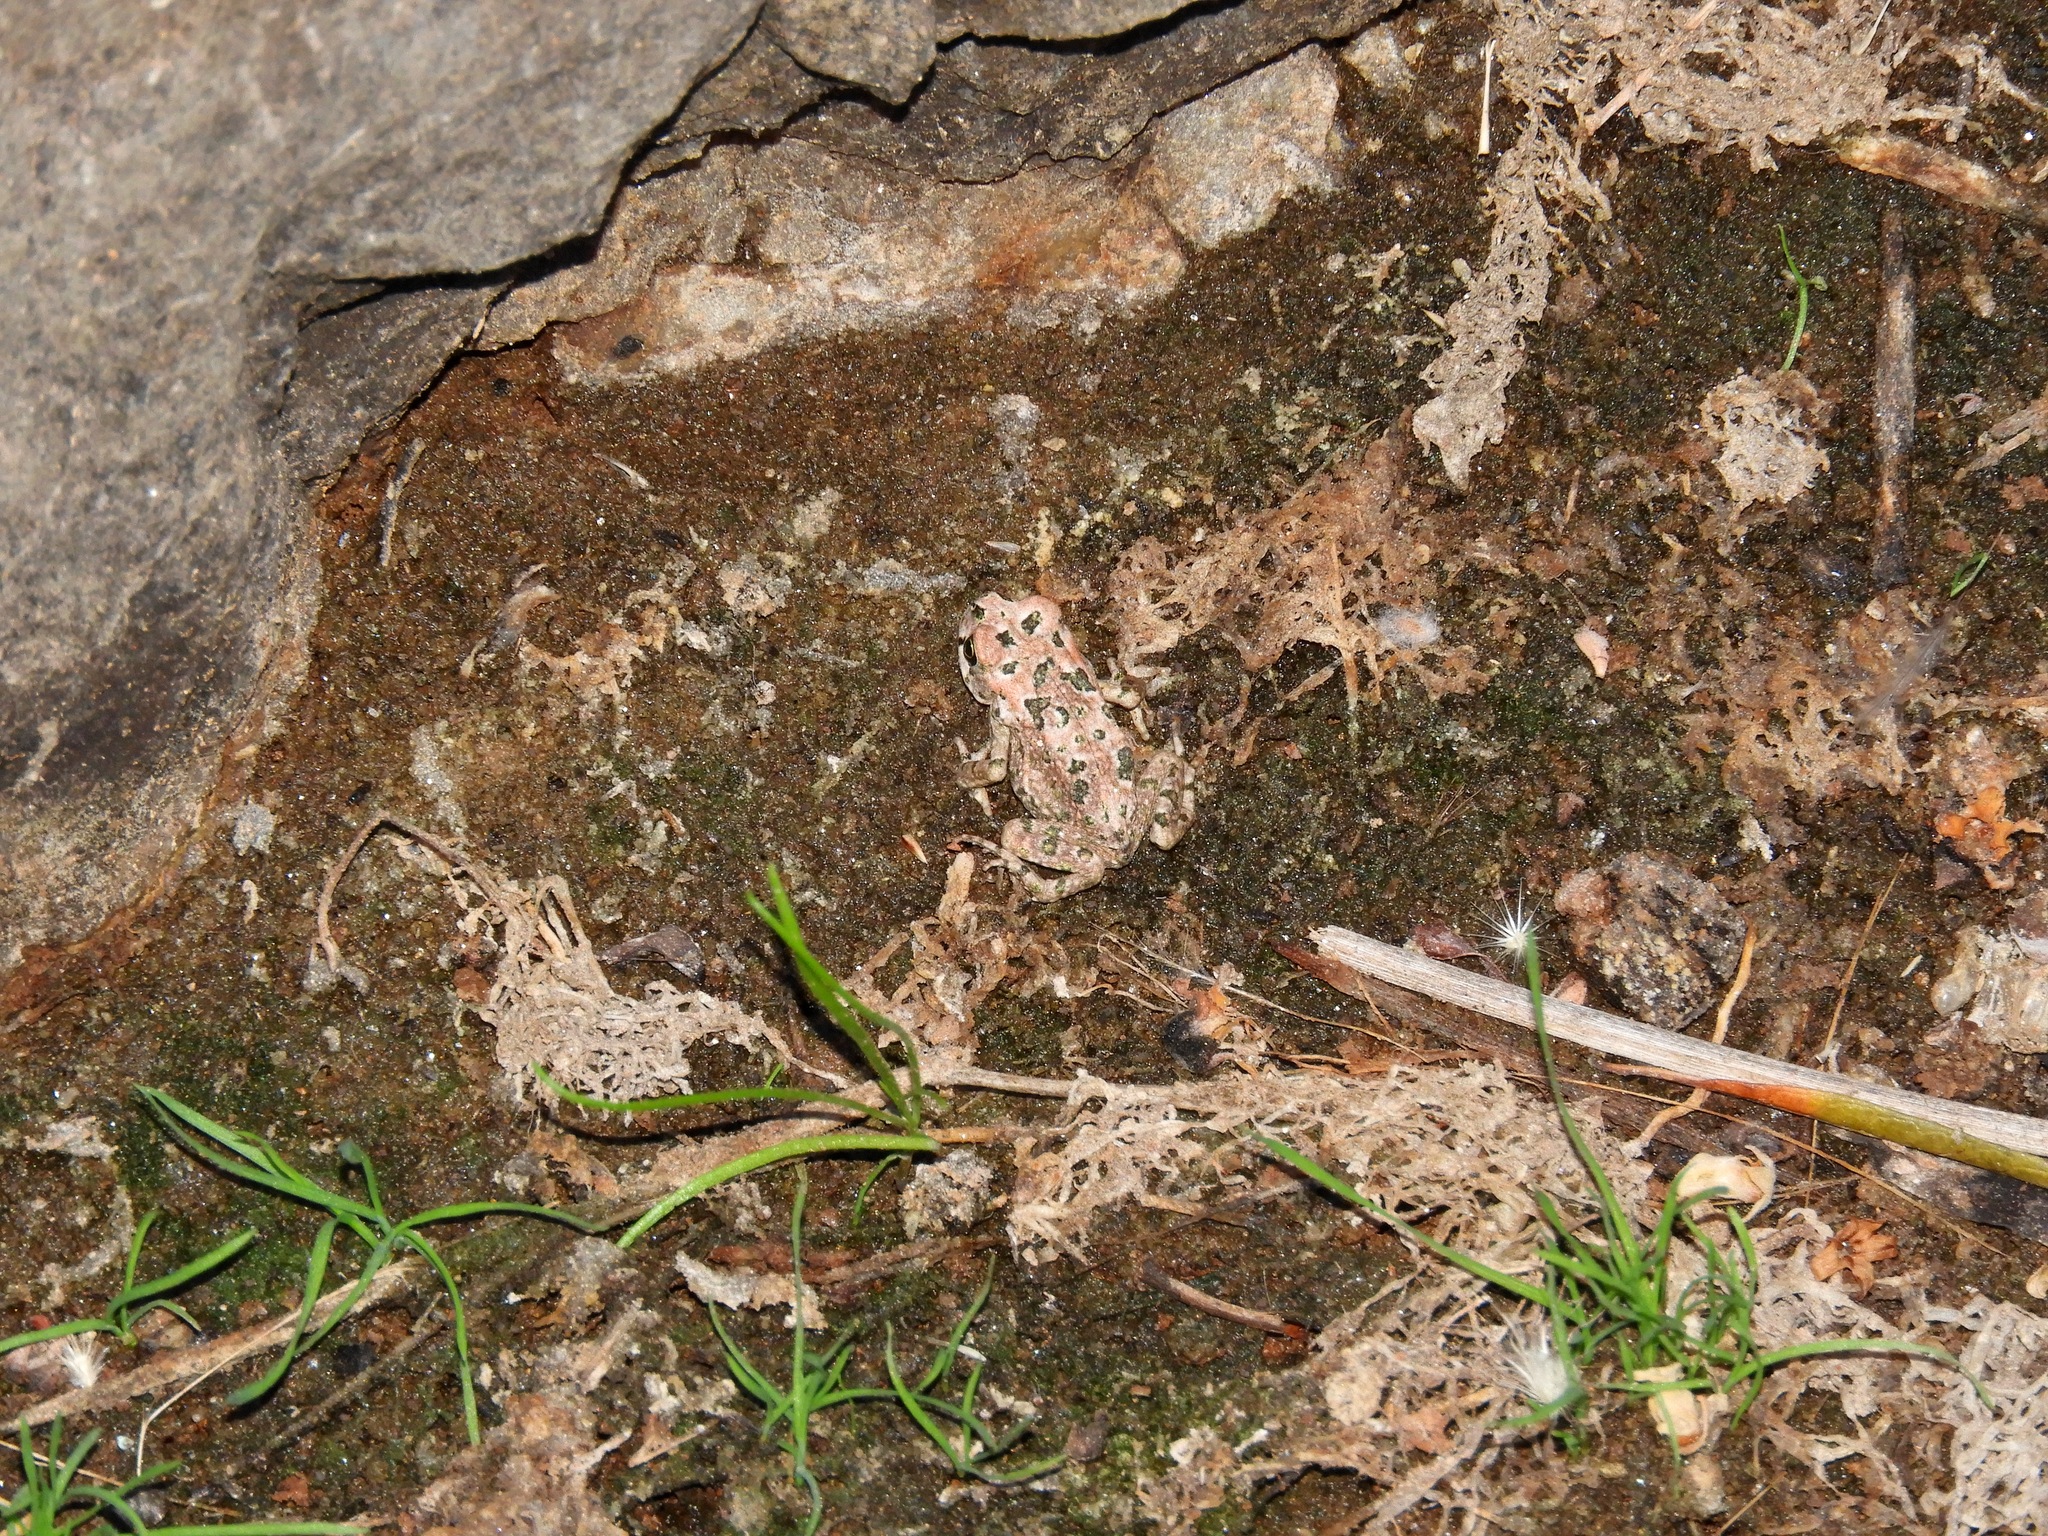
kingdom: Animalia
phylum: Chordata
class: Amphibia
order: Anura
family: Bufonidae
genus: Vandijkophrynus
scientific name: Vandijkophrynus robinsoni
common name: Paradise toad
